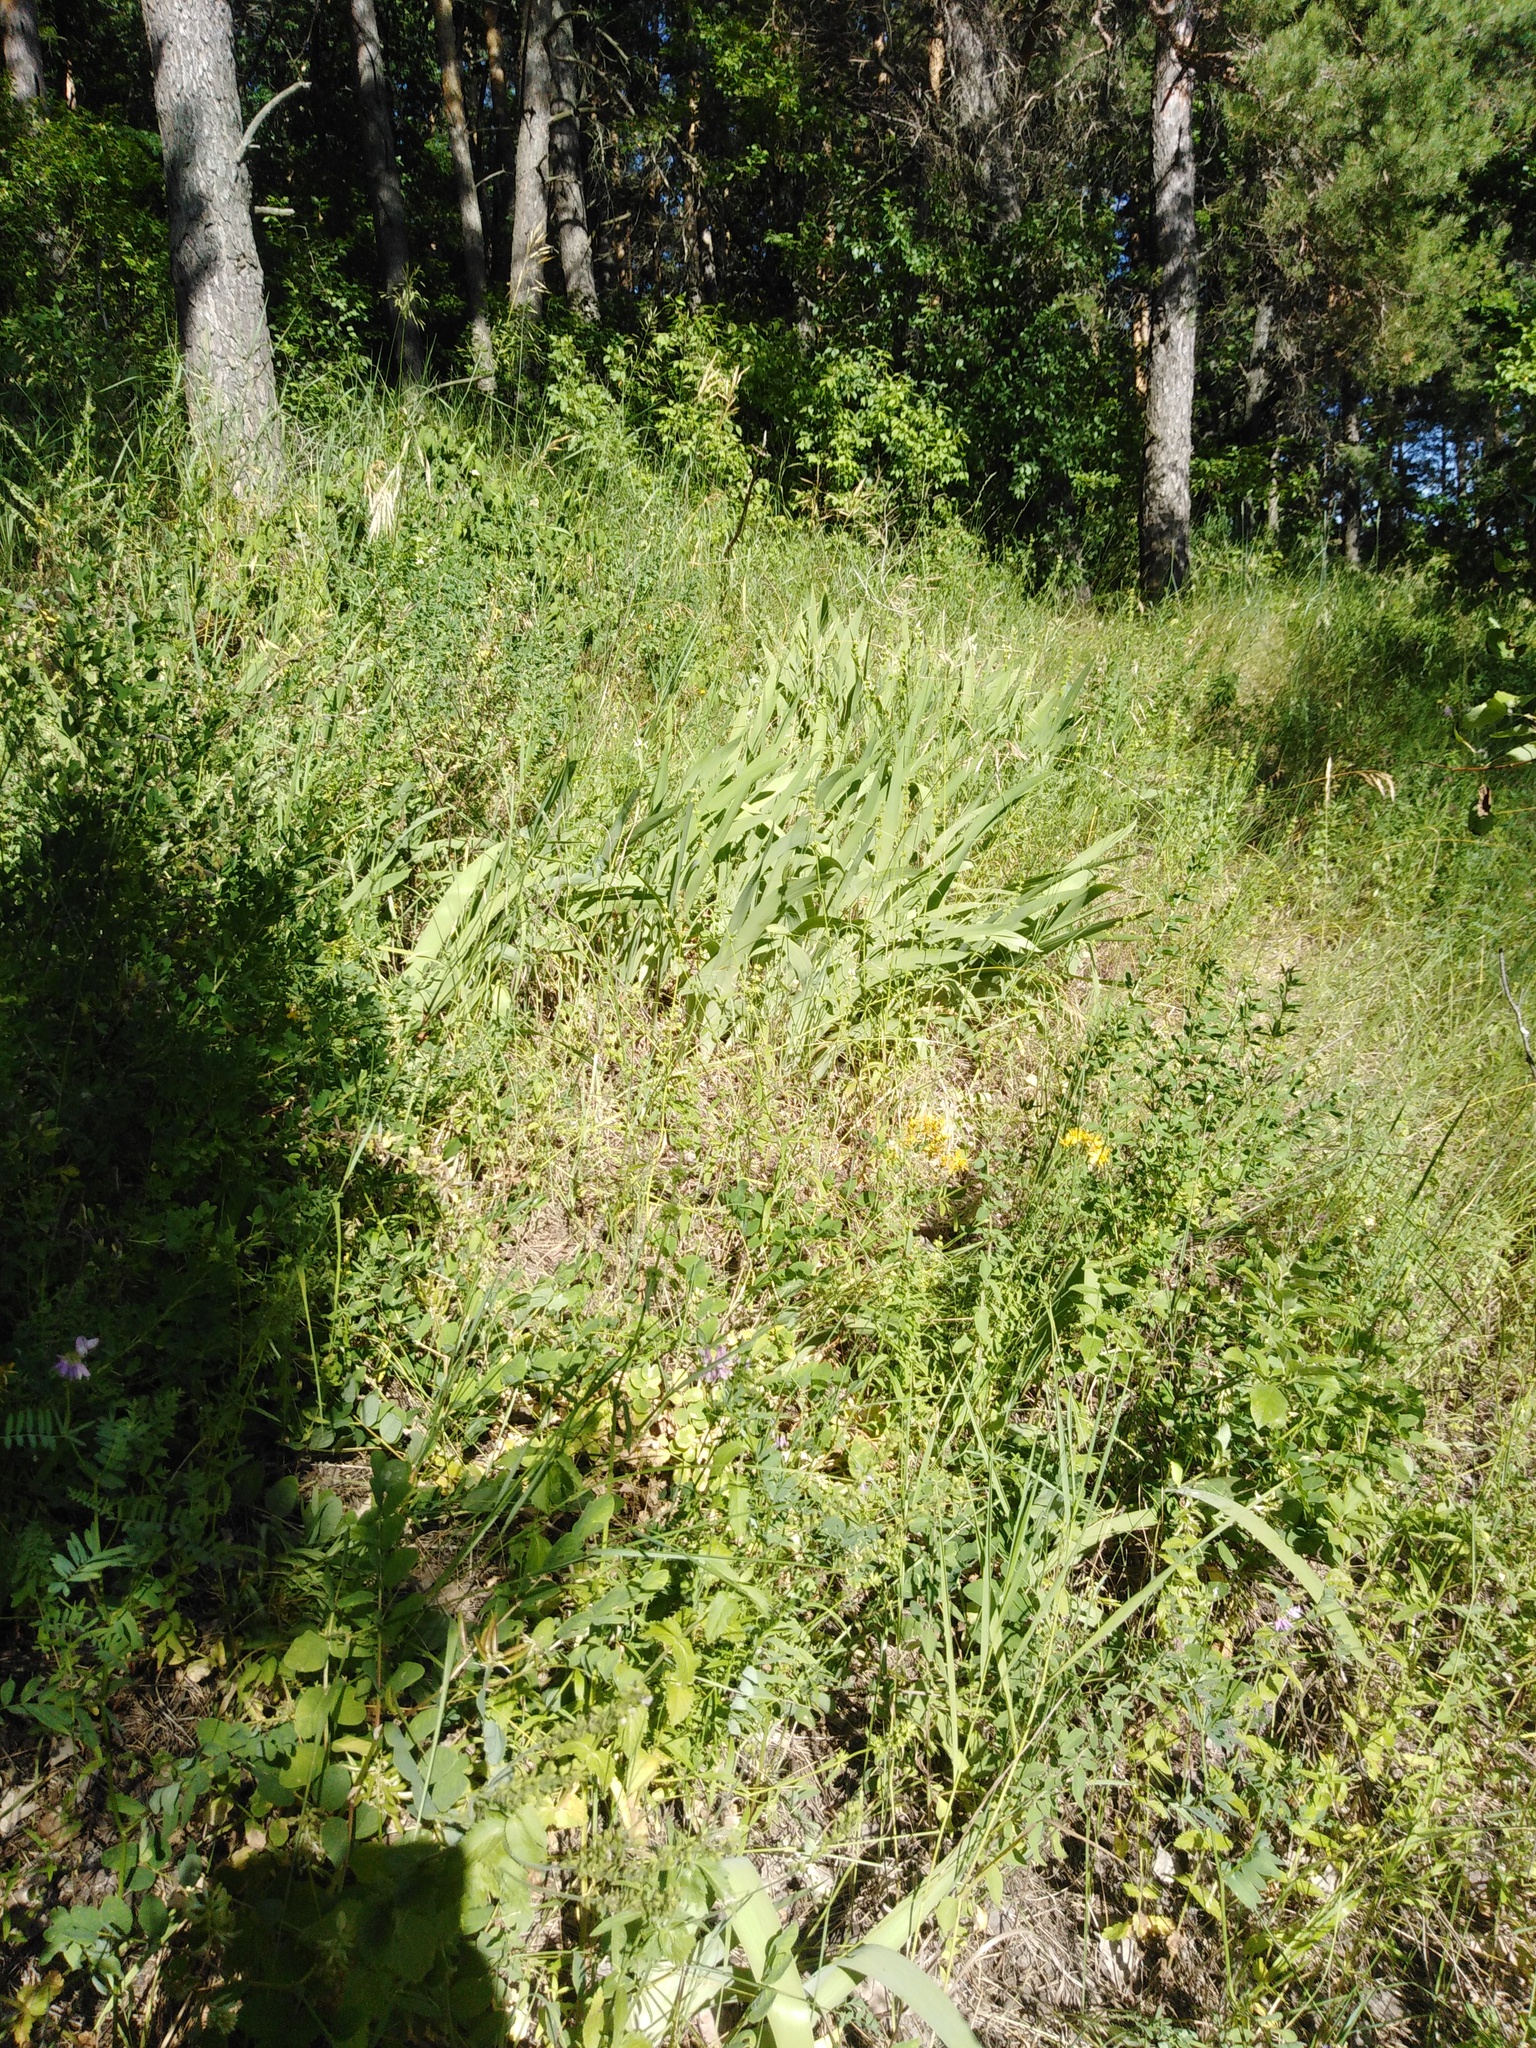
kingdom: Plantae
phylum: Tracheophyta
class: Liliopsida
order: Asparagales
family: Iridaceae
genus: Iris
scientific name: Iris aphylla
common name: Stool iris
